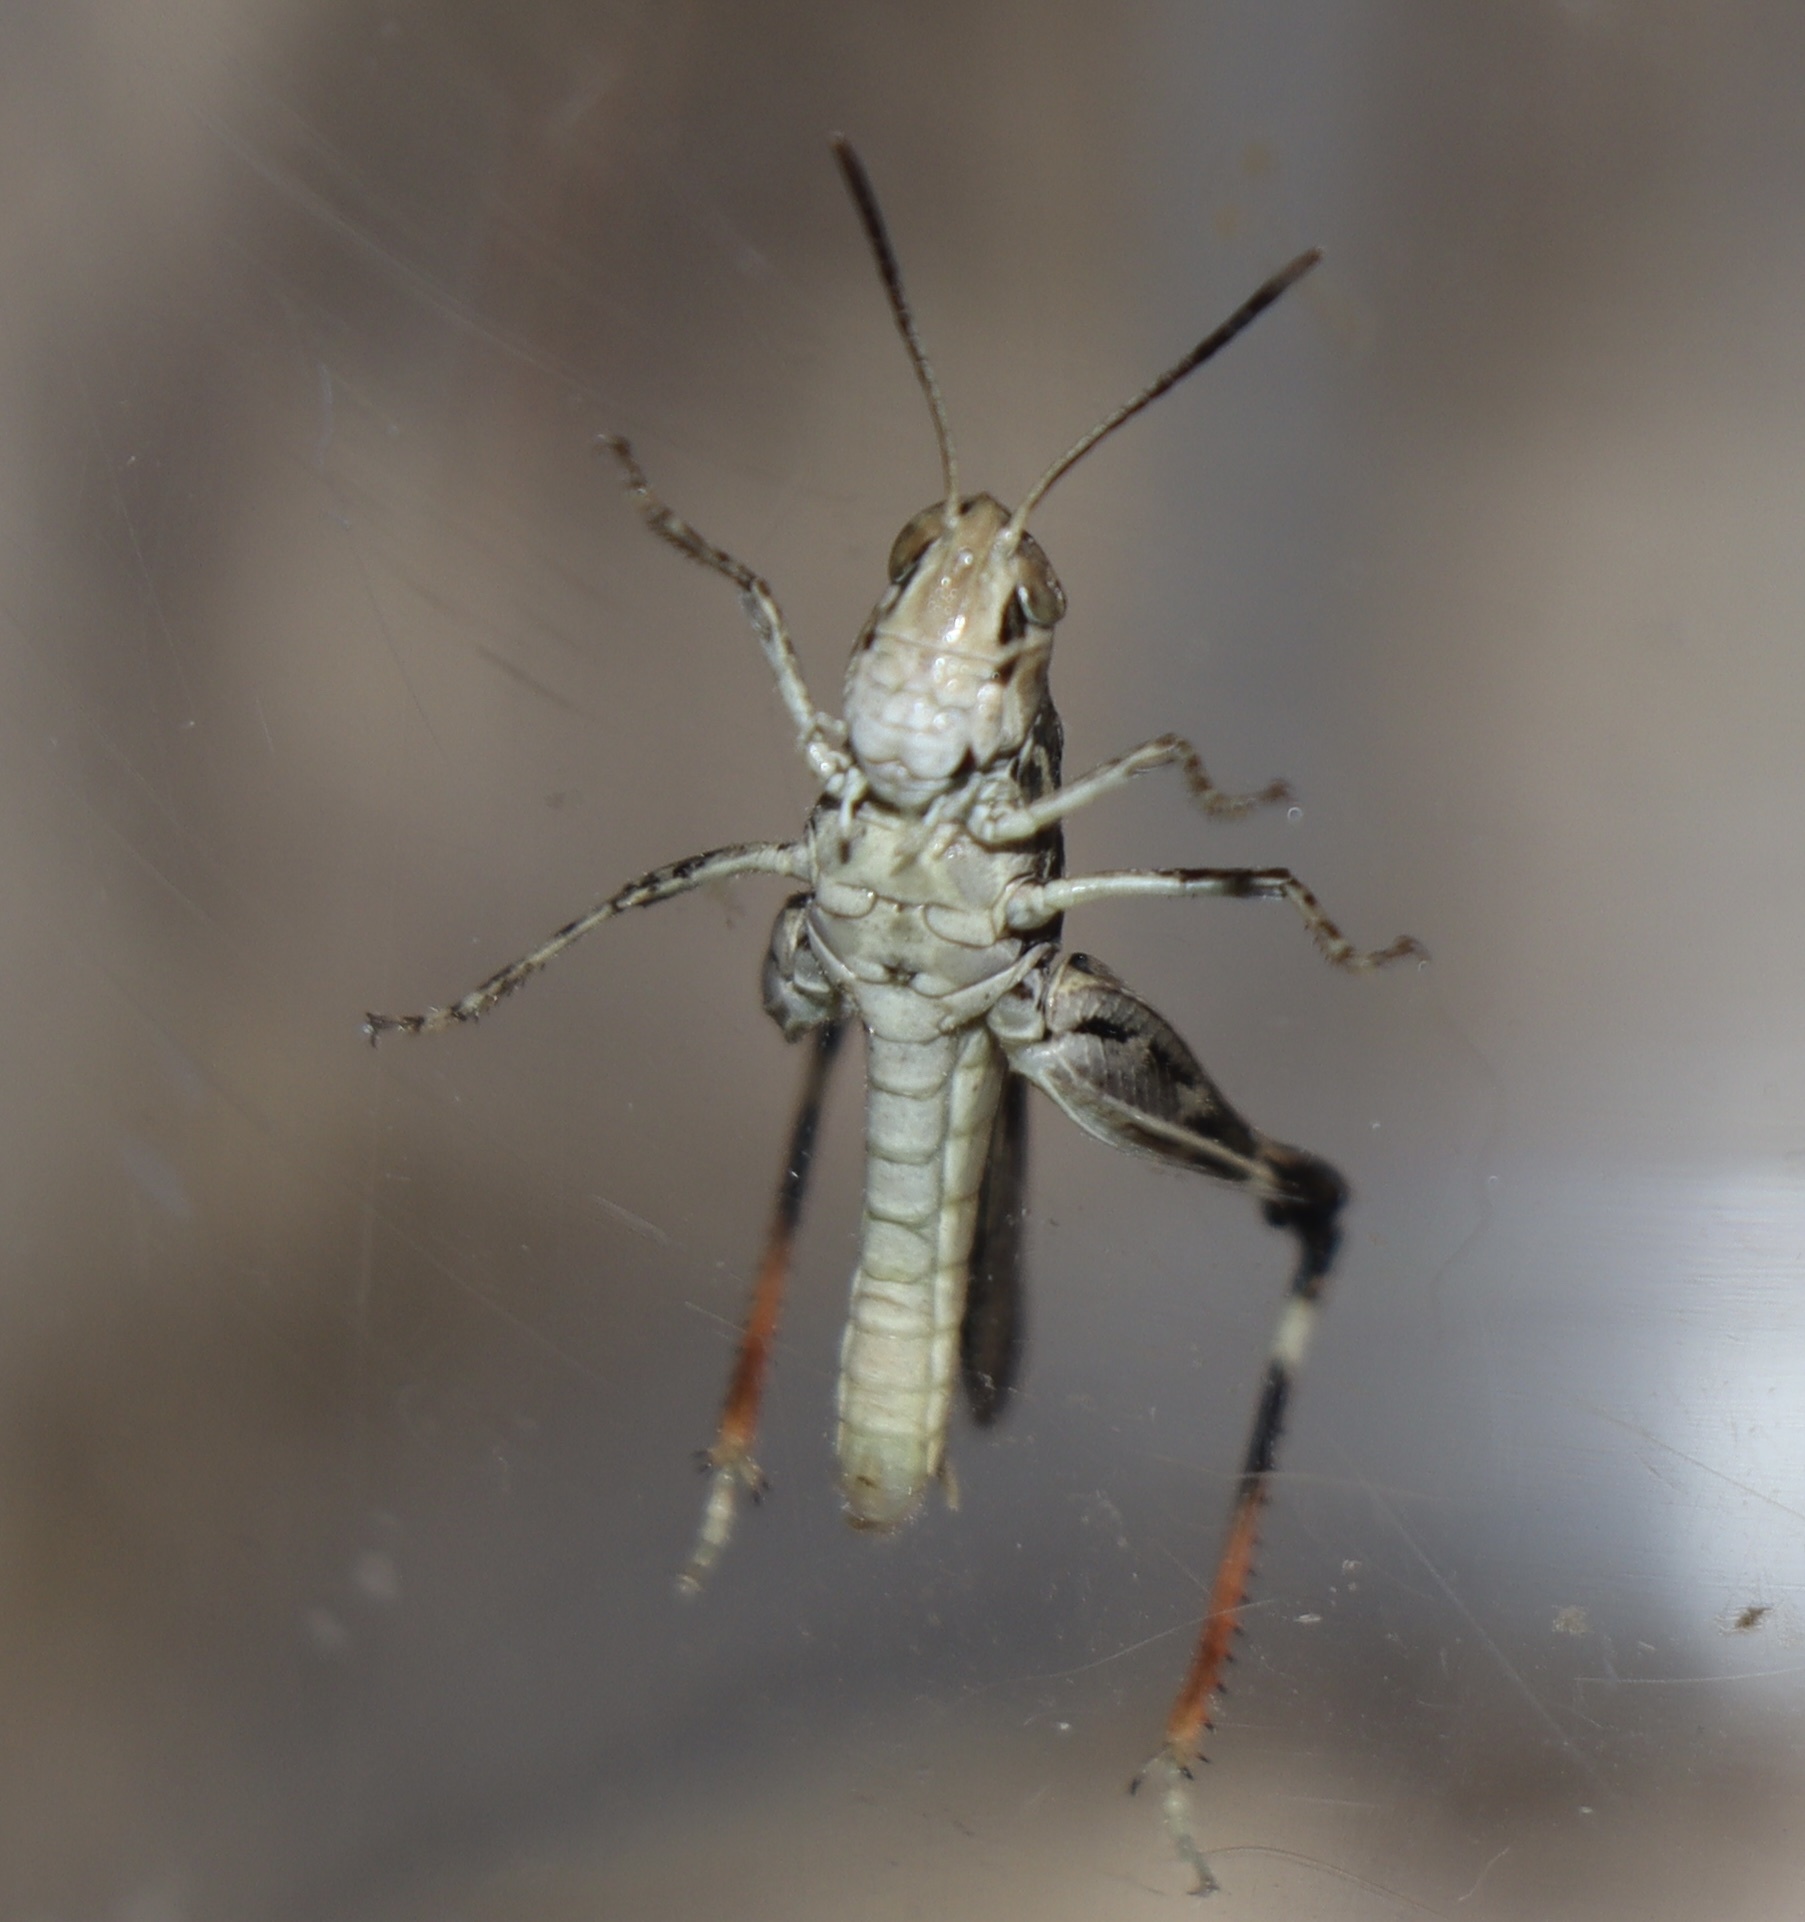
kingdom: Animalia
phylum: Arthropoda
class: Insecta
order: Orthoptera
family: Acrididae
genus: Austroicetes
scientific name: Austroicetes pusilla
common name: Confusing austroicetes
